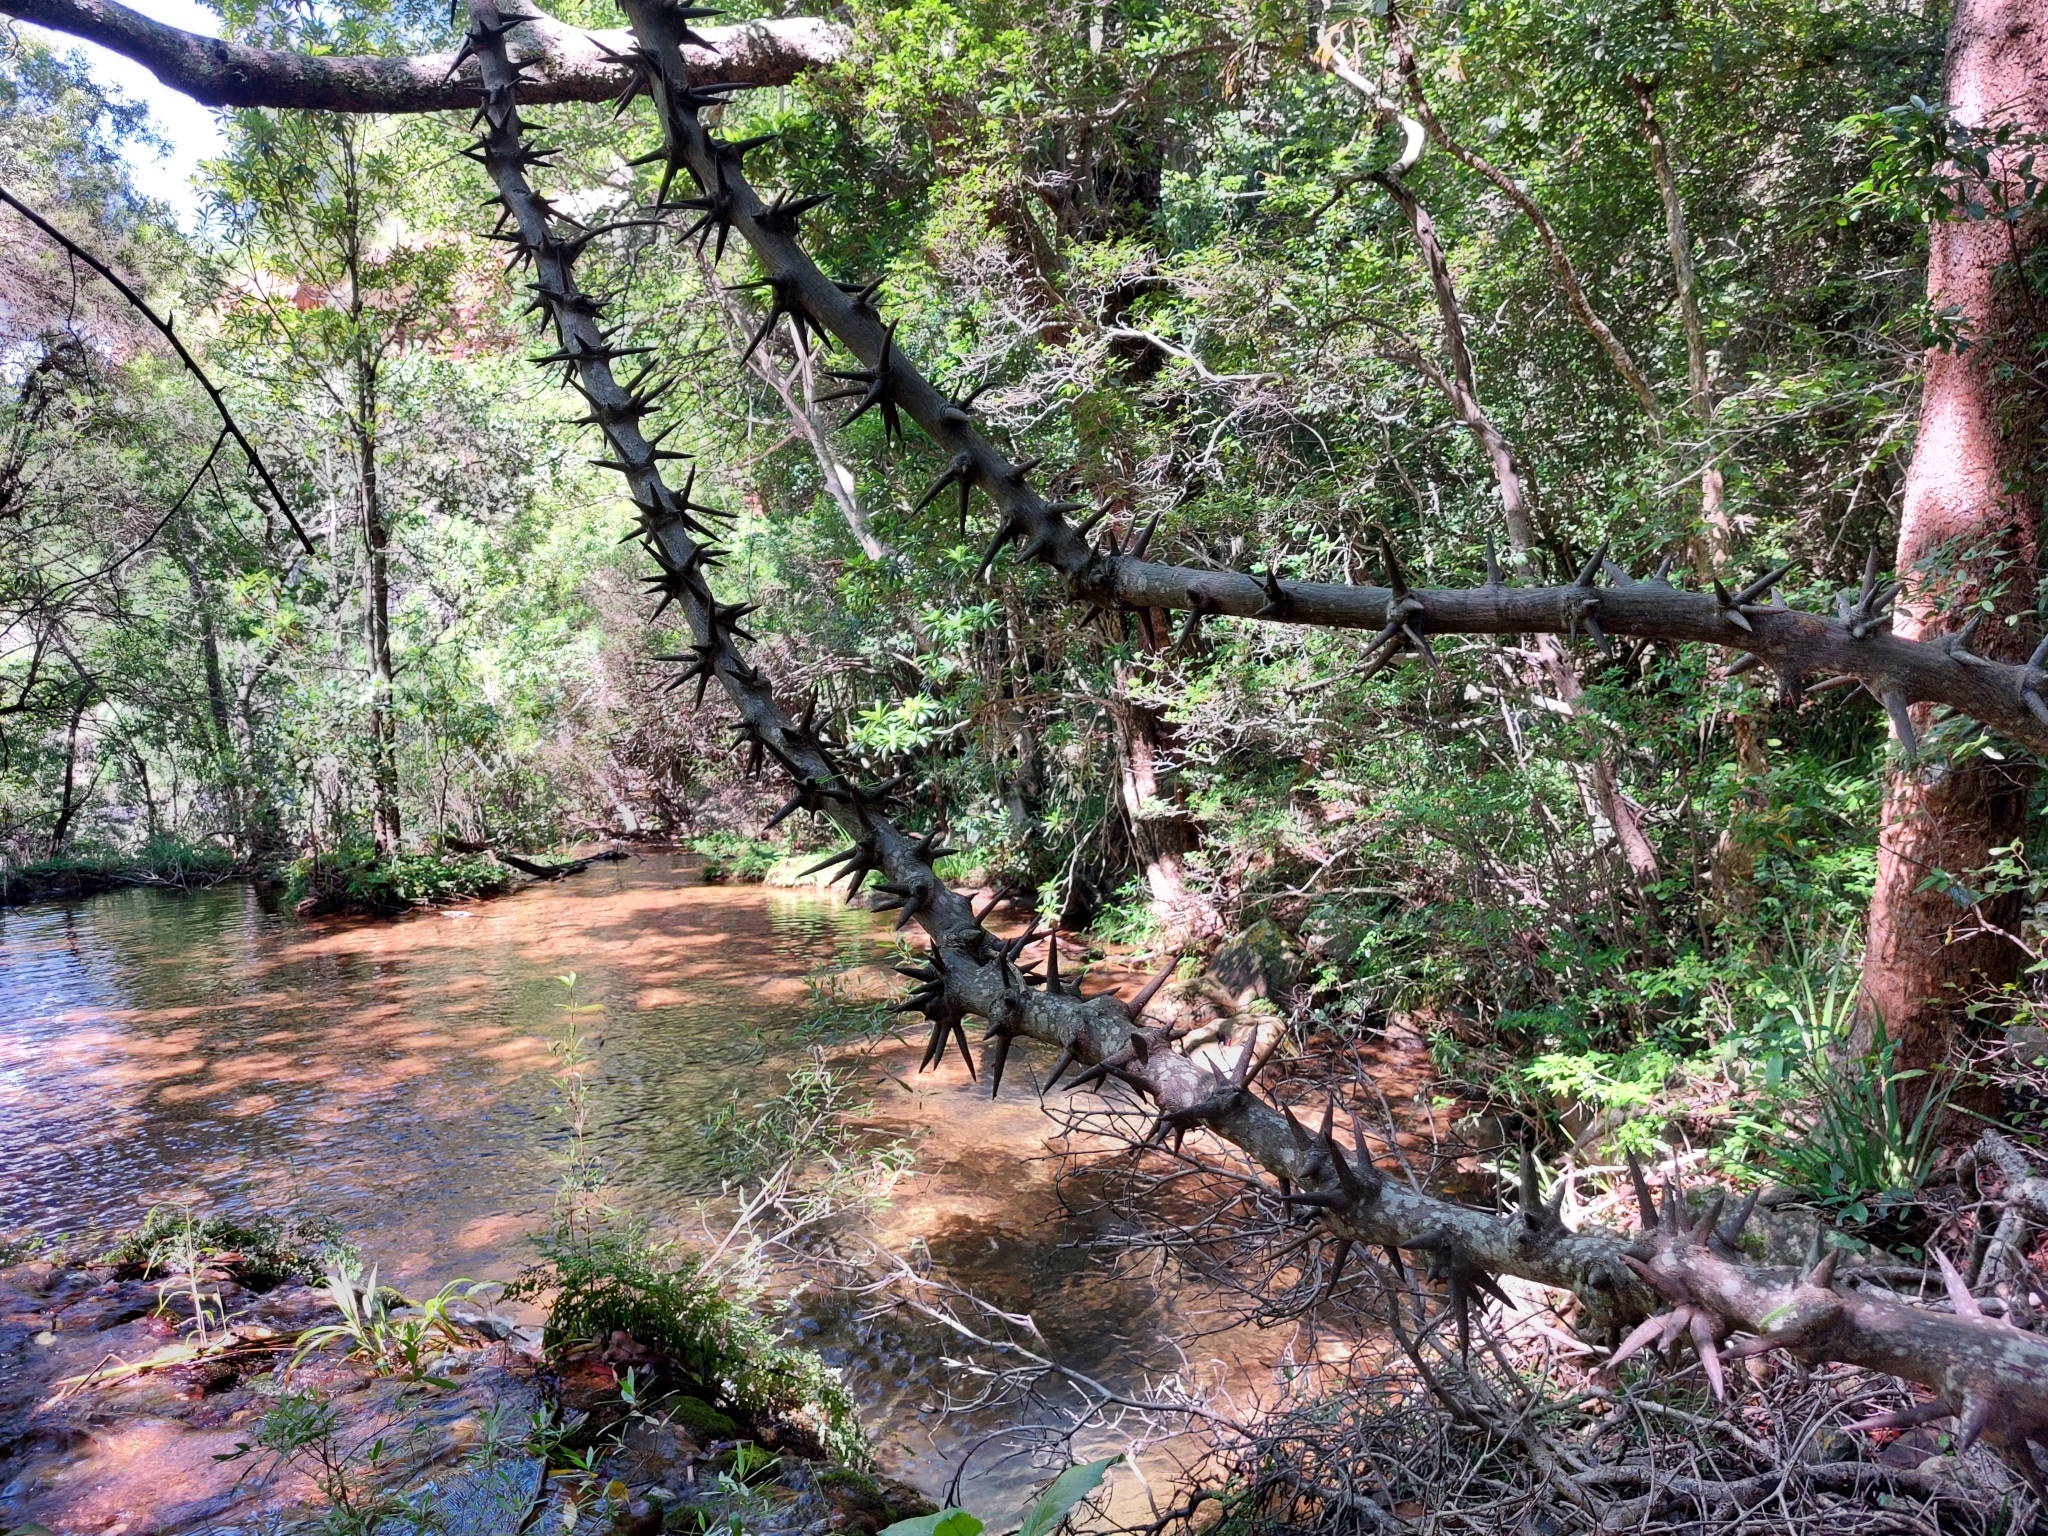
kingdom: Plantae
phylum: Tracheophyta
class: Magnoliopsida
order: Fabales
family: Fabaceae
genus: Dalbergia
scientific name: Dalbergia armata
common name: Hluhluwe climber
